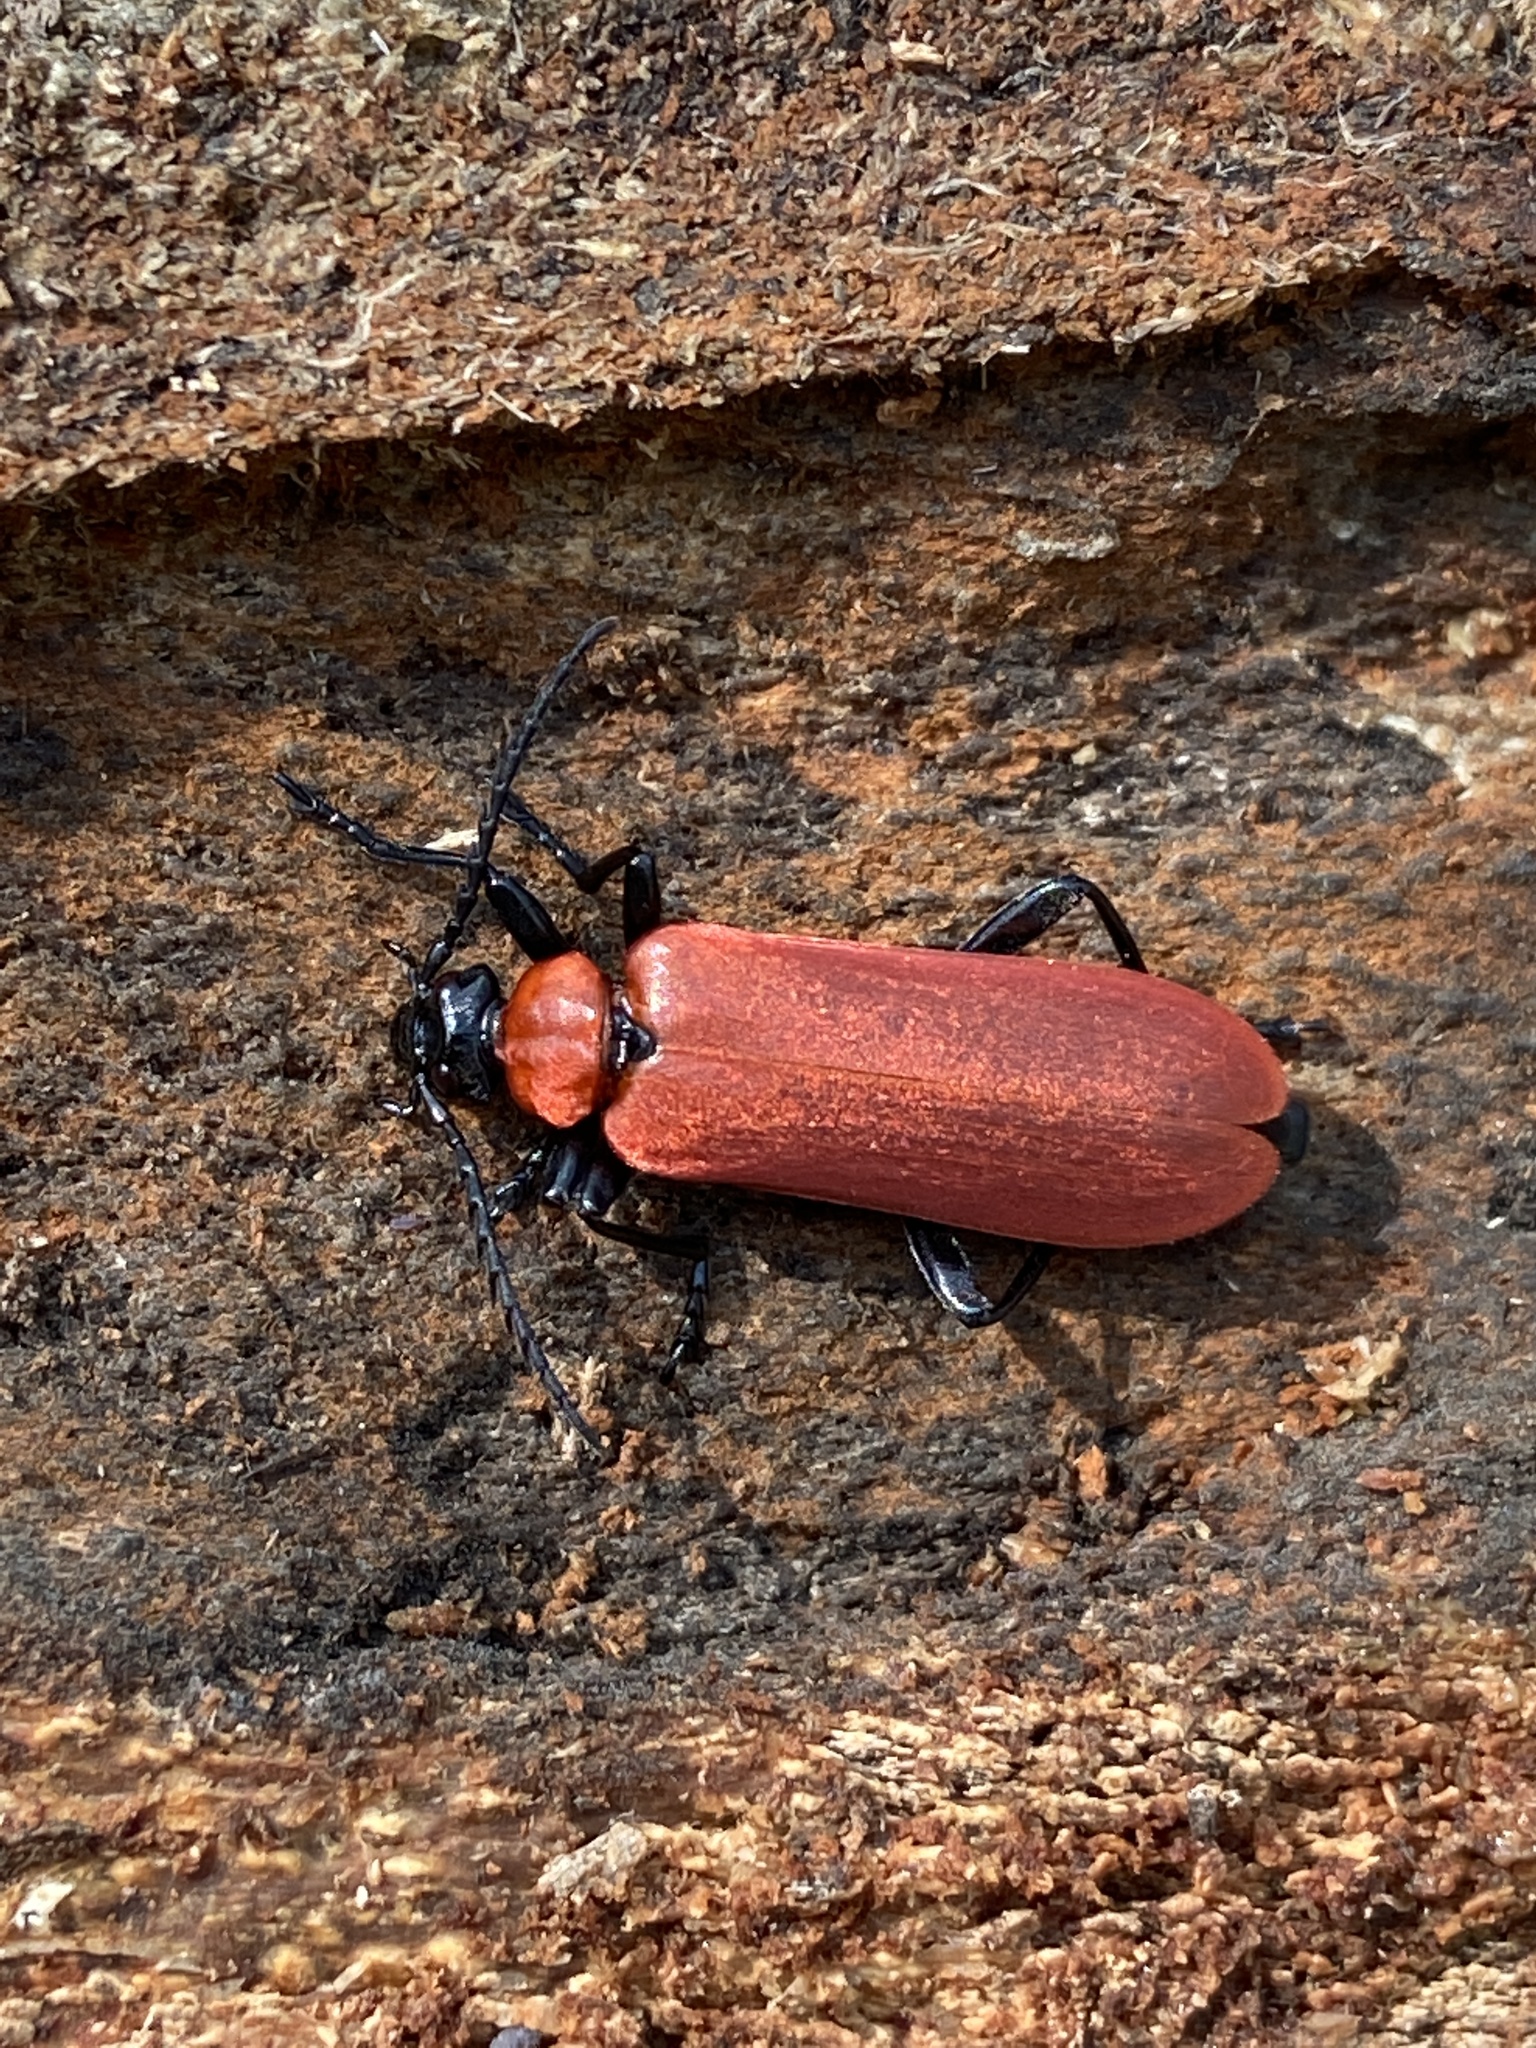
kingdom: Animalia
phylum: Arthropoda
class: Insecta
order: Coleoptera
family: Pyrochroidae
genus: Pyrochroa
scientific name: Pyrochroa coccinea
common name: Black-headed cardinal beetle
